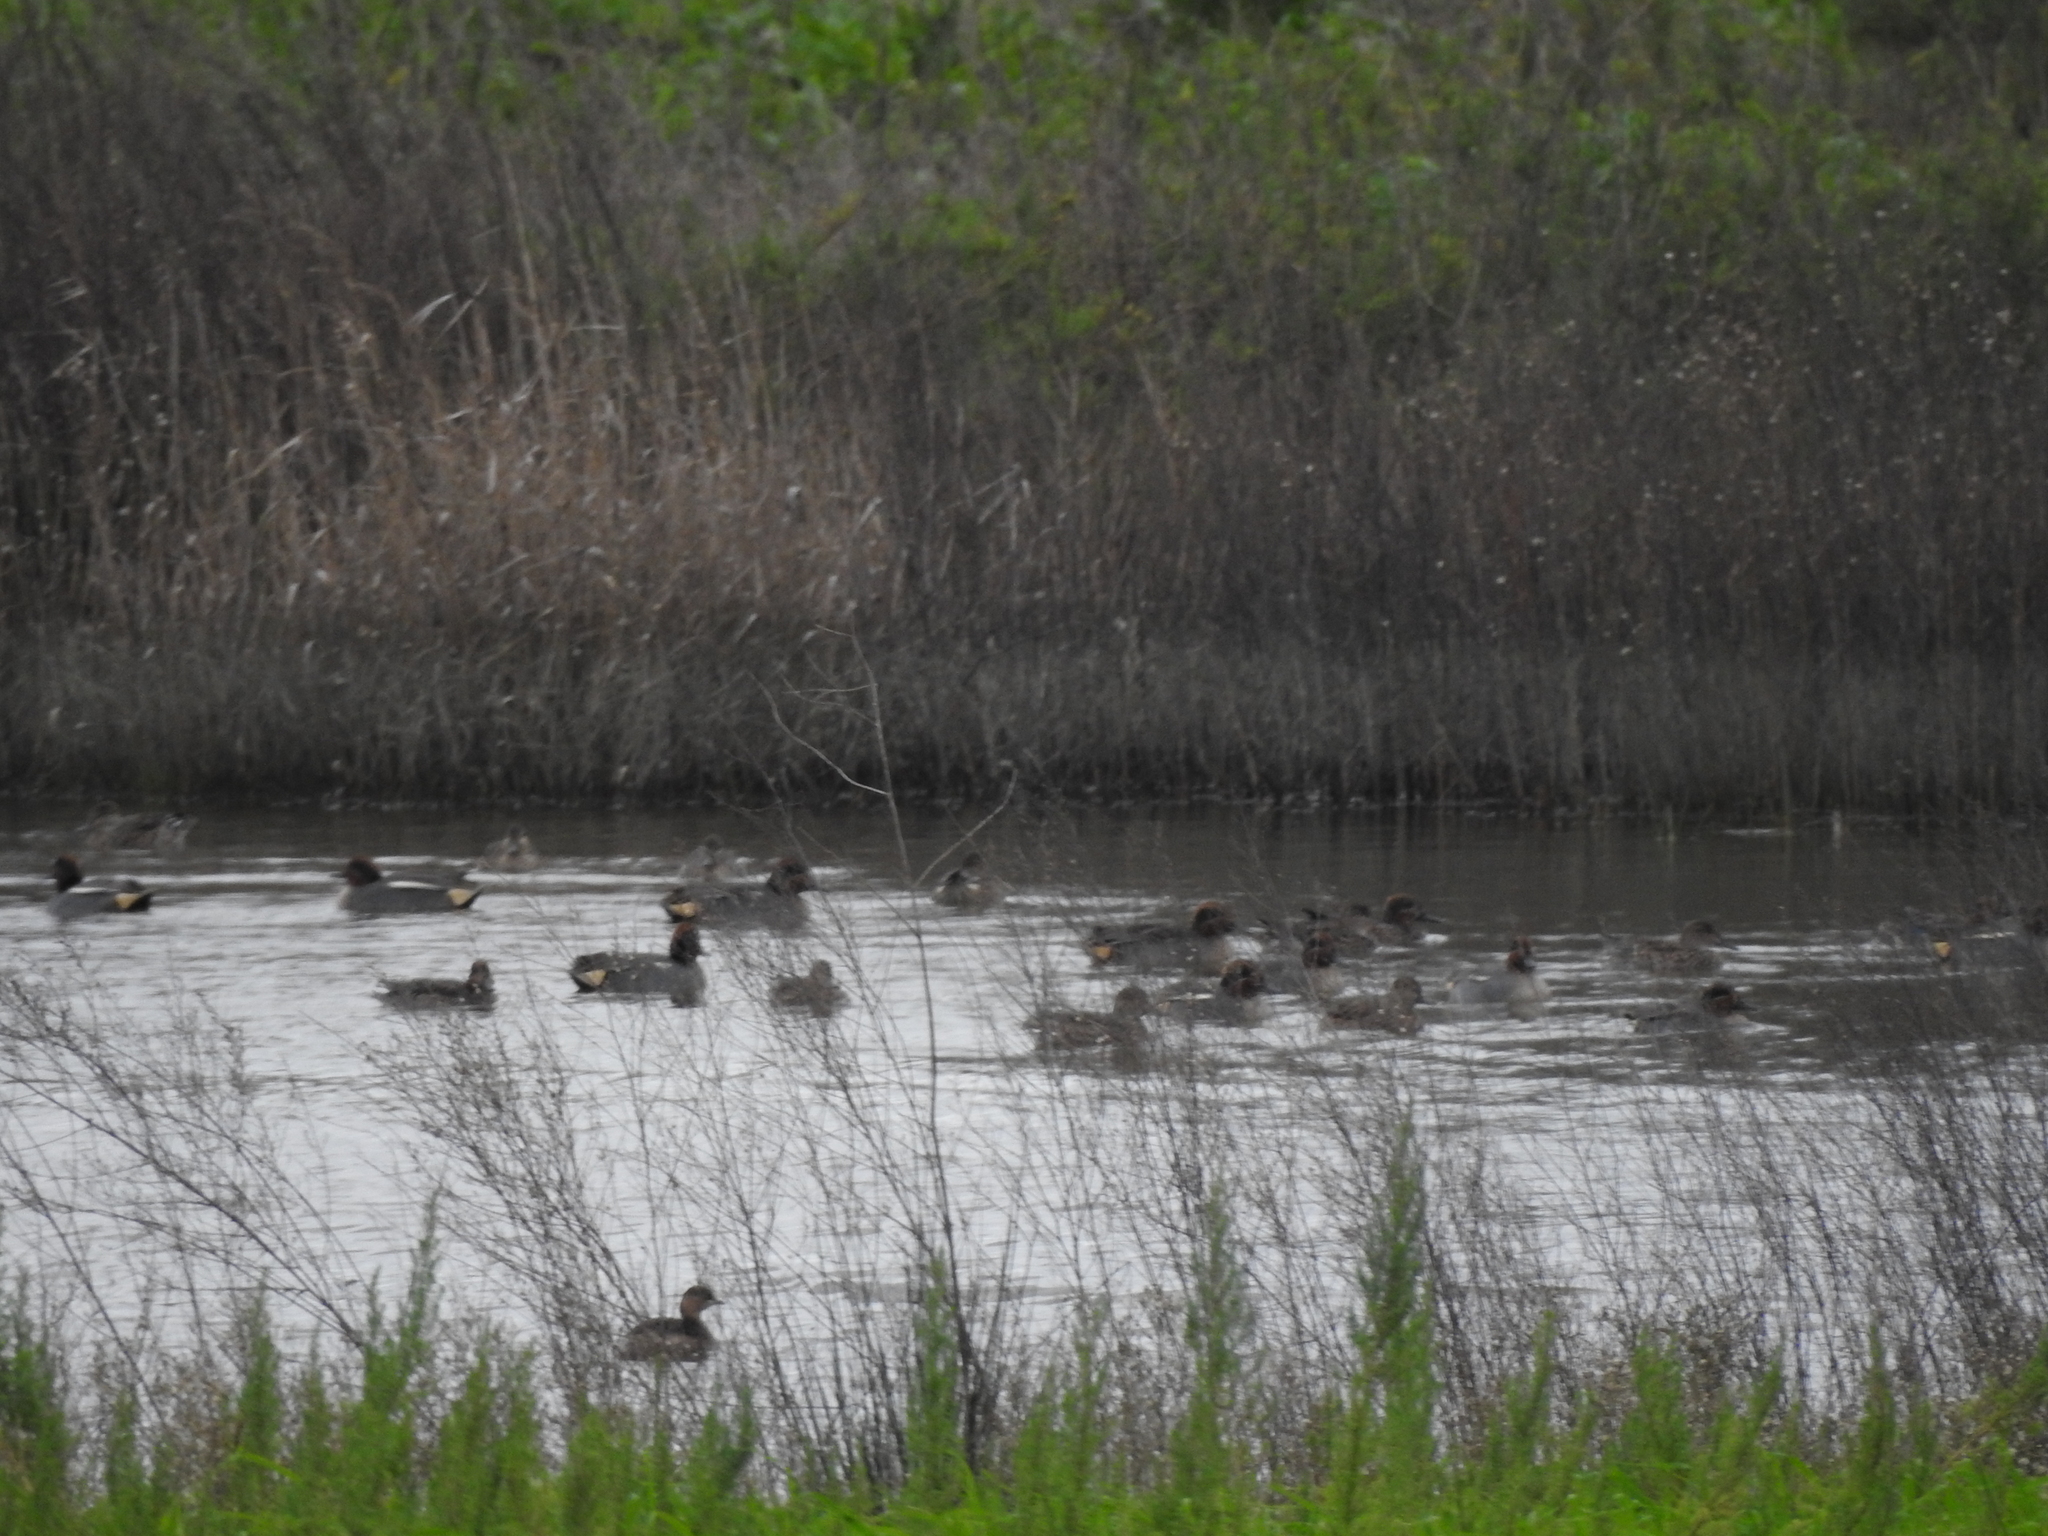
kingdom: Animalia
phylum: Chordata
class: Aves
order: Anseriformes
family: Anatidae
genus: Anas
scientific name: Anas crecca
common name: Eurasian teal
